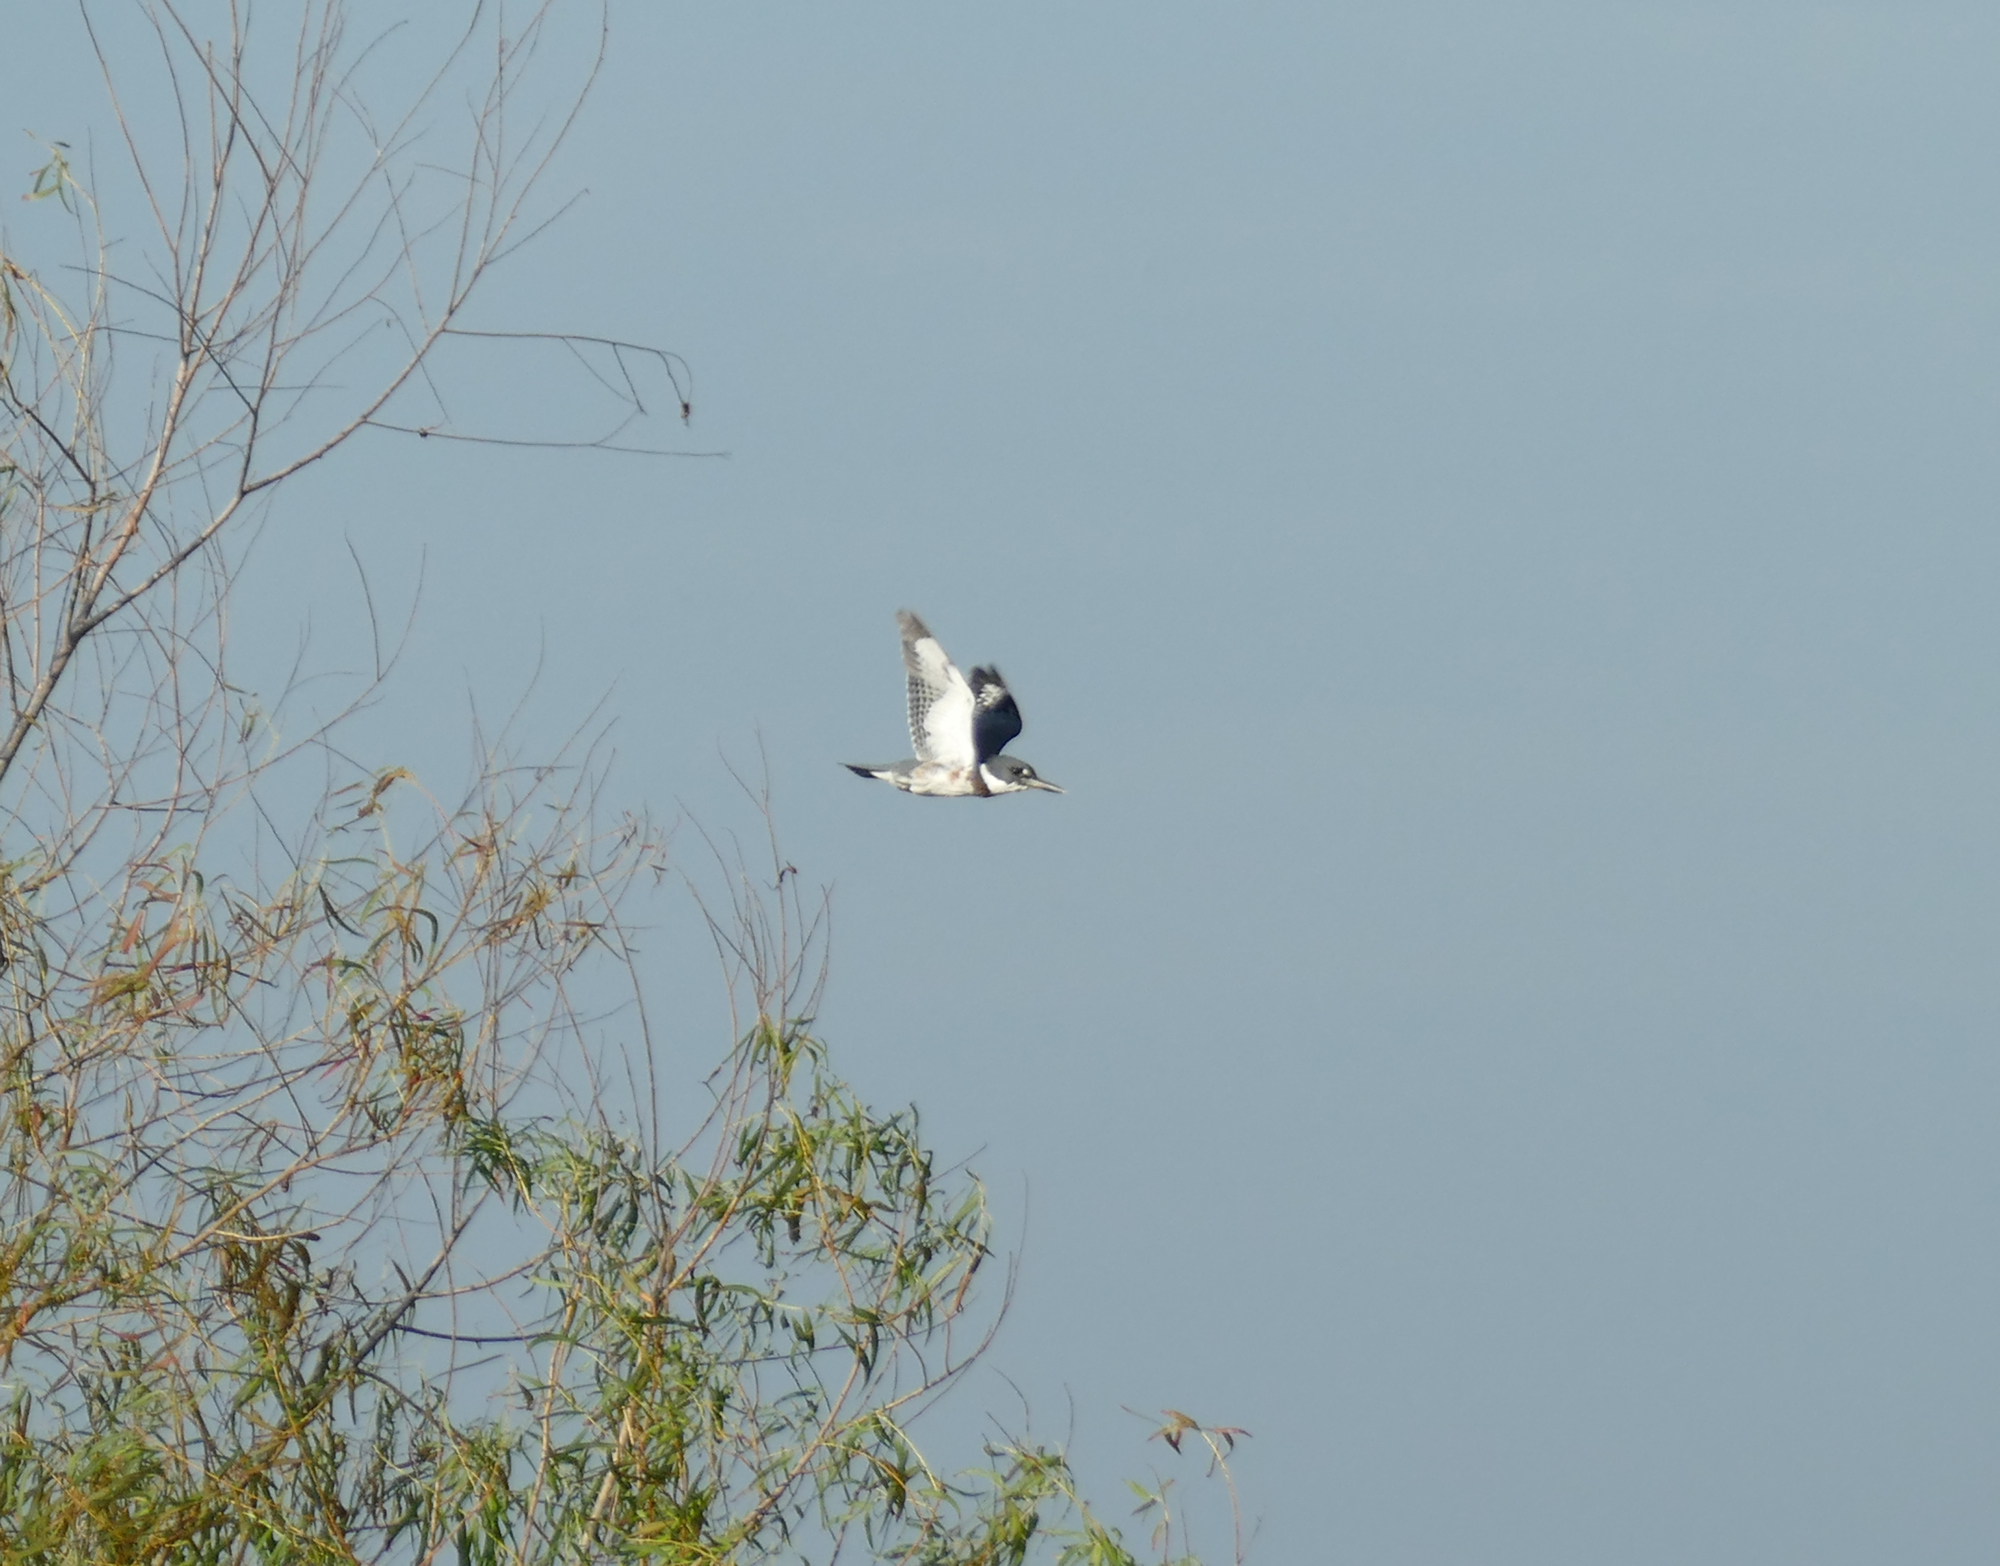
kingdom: Animalia
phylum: Chordata
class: Aves
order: Coraciiformes
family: Alcedinidae
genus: Megaceryle
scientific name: Megaceryle alcyon
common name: Belted kingfisher
